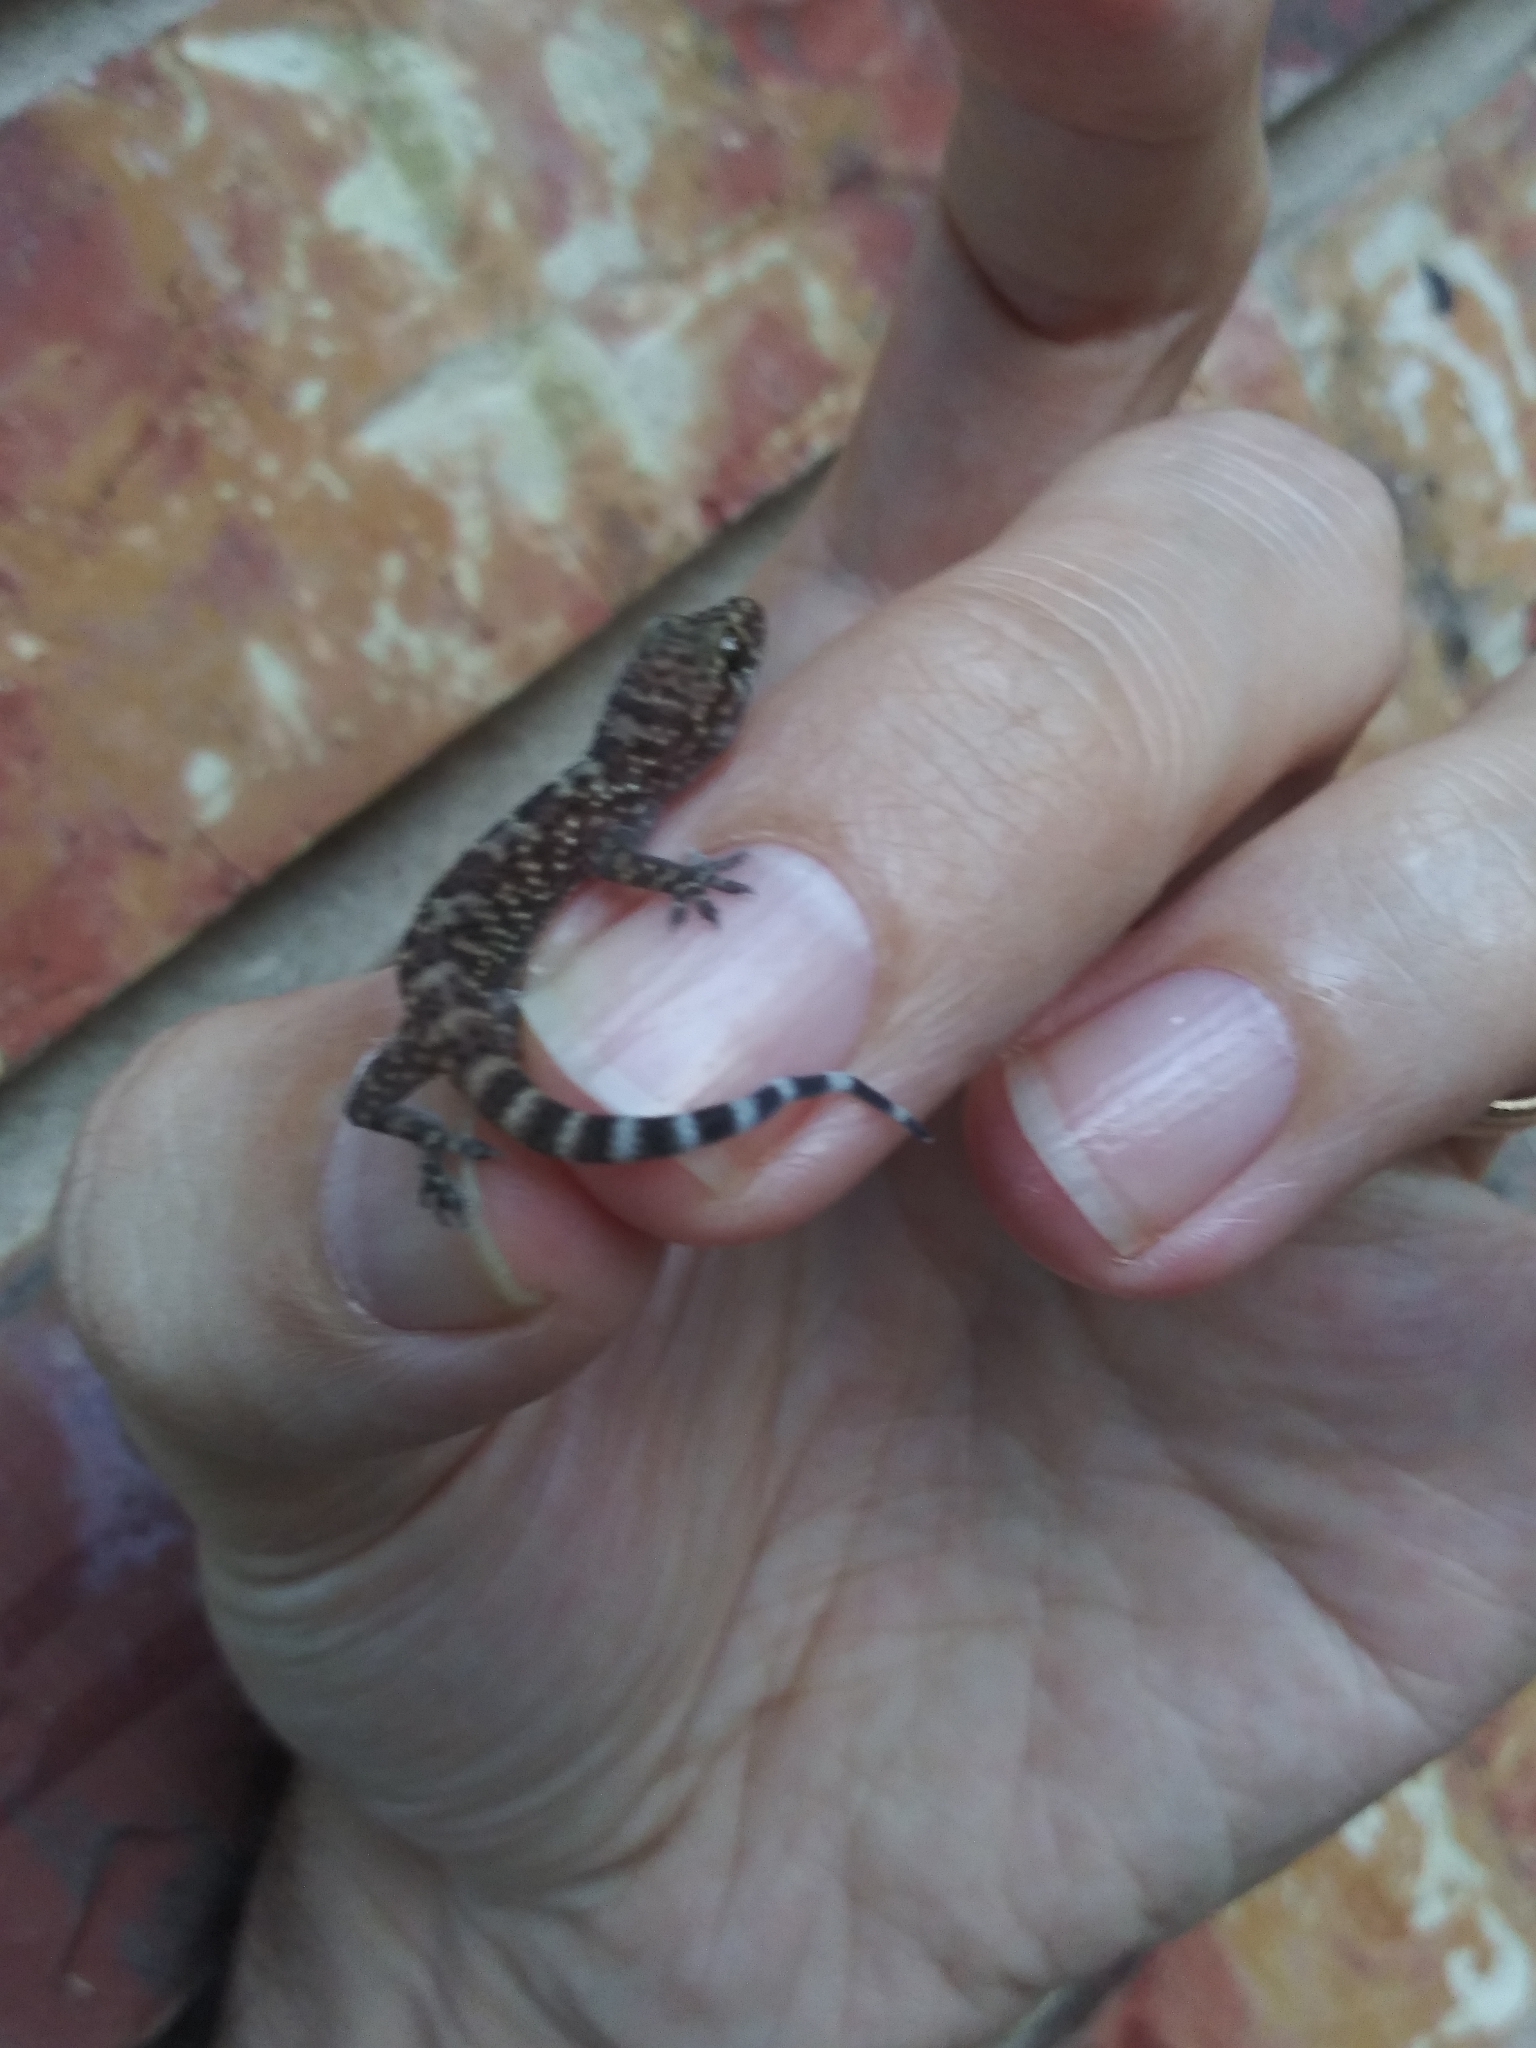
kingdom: Animalia
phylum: Chordata
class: Squamata
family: Gekkonidae
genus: Hemidactylus
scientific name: Hemidactylus turcicus
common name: Turkish gecko
